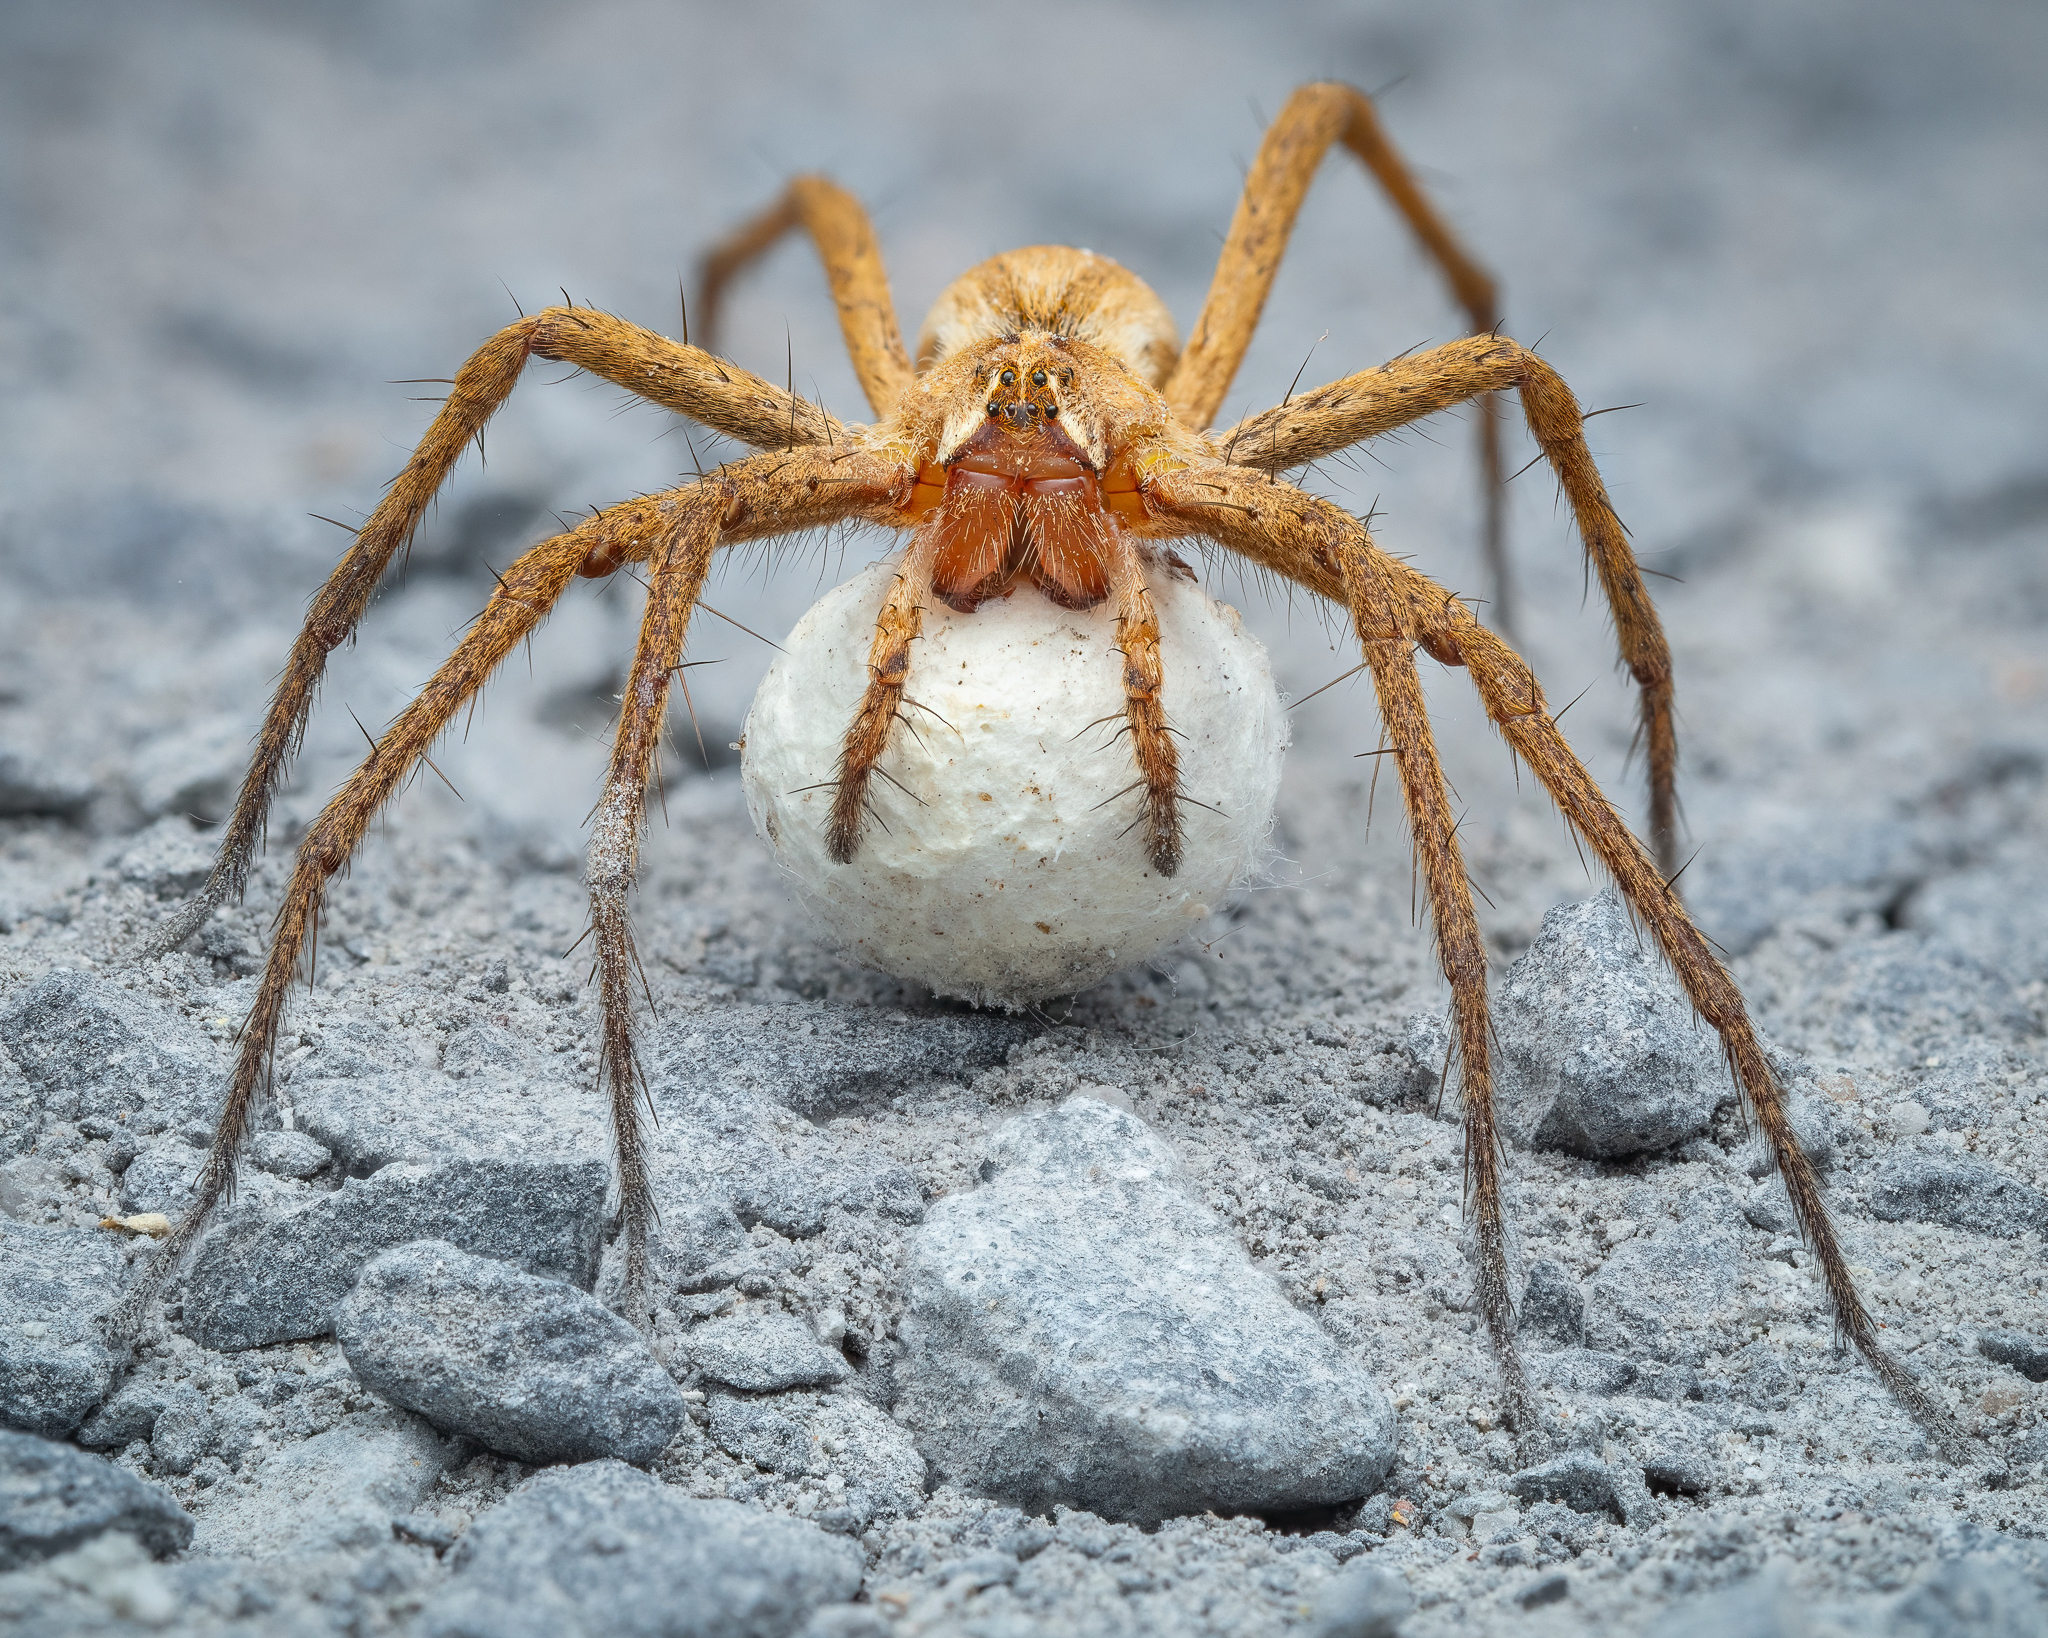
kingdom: Animalia
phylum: Arthropoda
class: Arachnida
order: Araneae
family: Pisauridae
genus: Pisaura
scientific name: Pisaura mirabilis
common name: Tent spider
